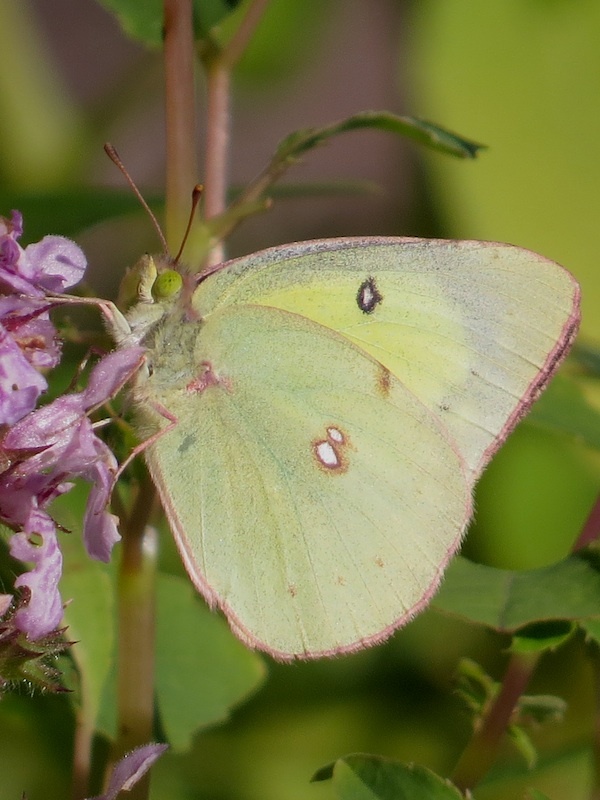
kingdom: Animalia
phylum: Arthropoda
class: Insecta
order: Lepidoptera
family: Pieridae
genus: Colias
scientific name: Colias philodice
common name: Clouded sulphur
